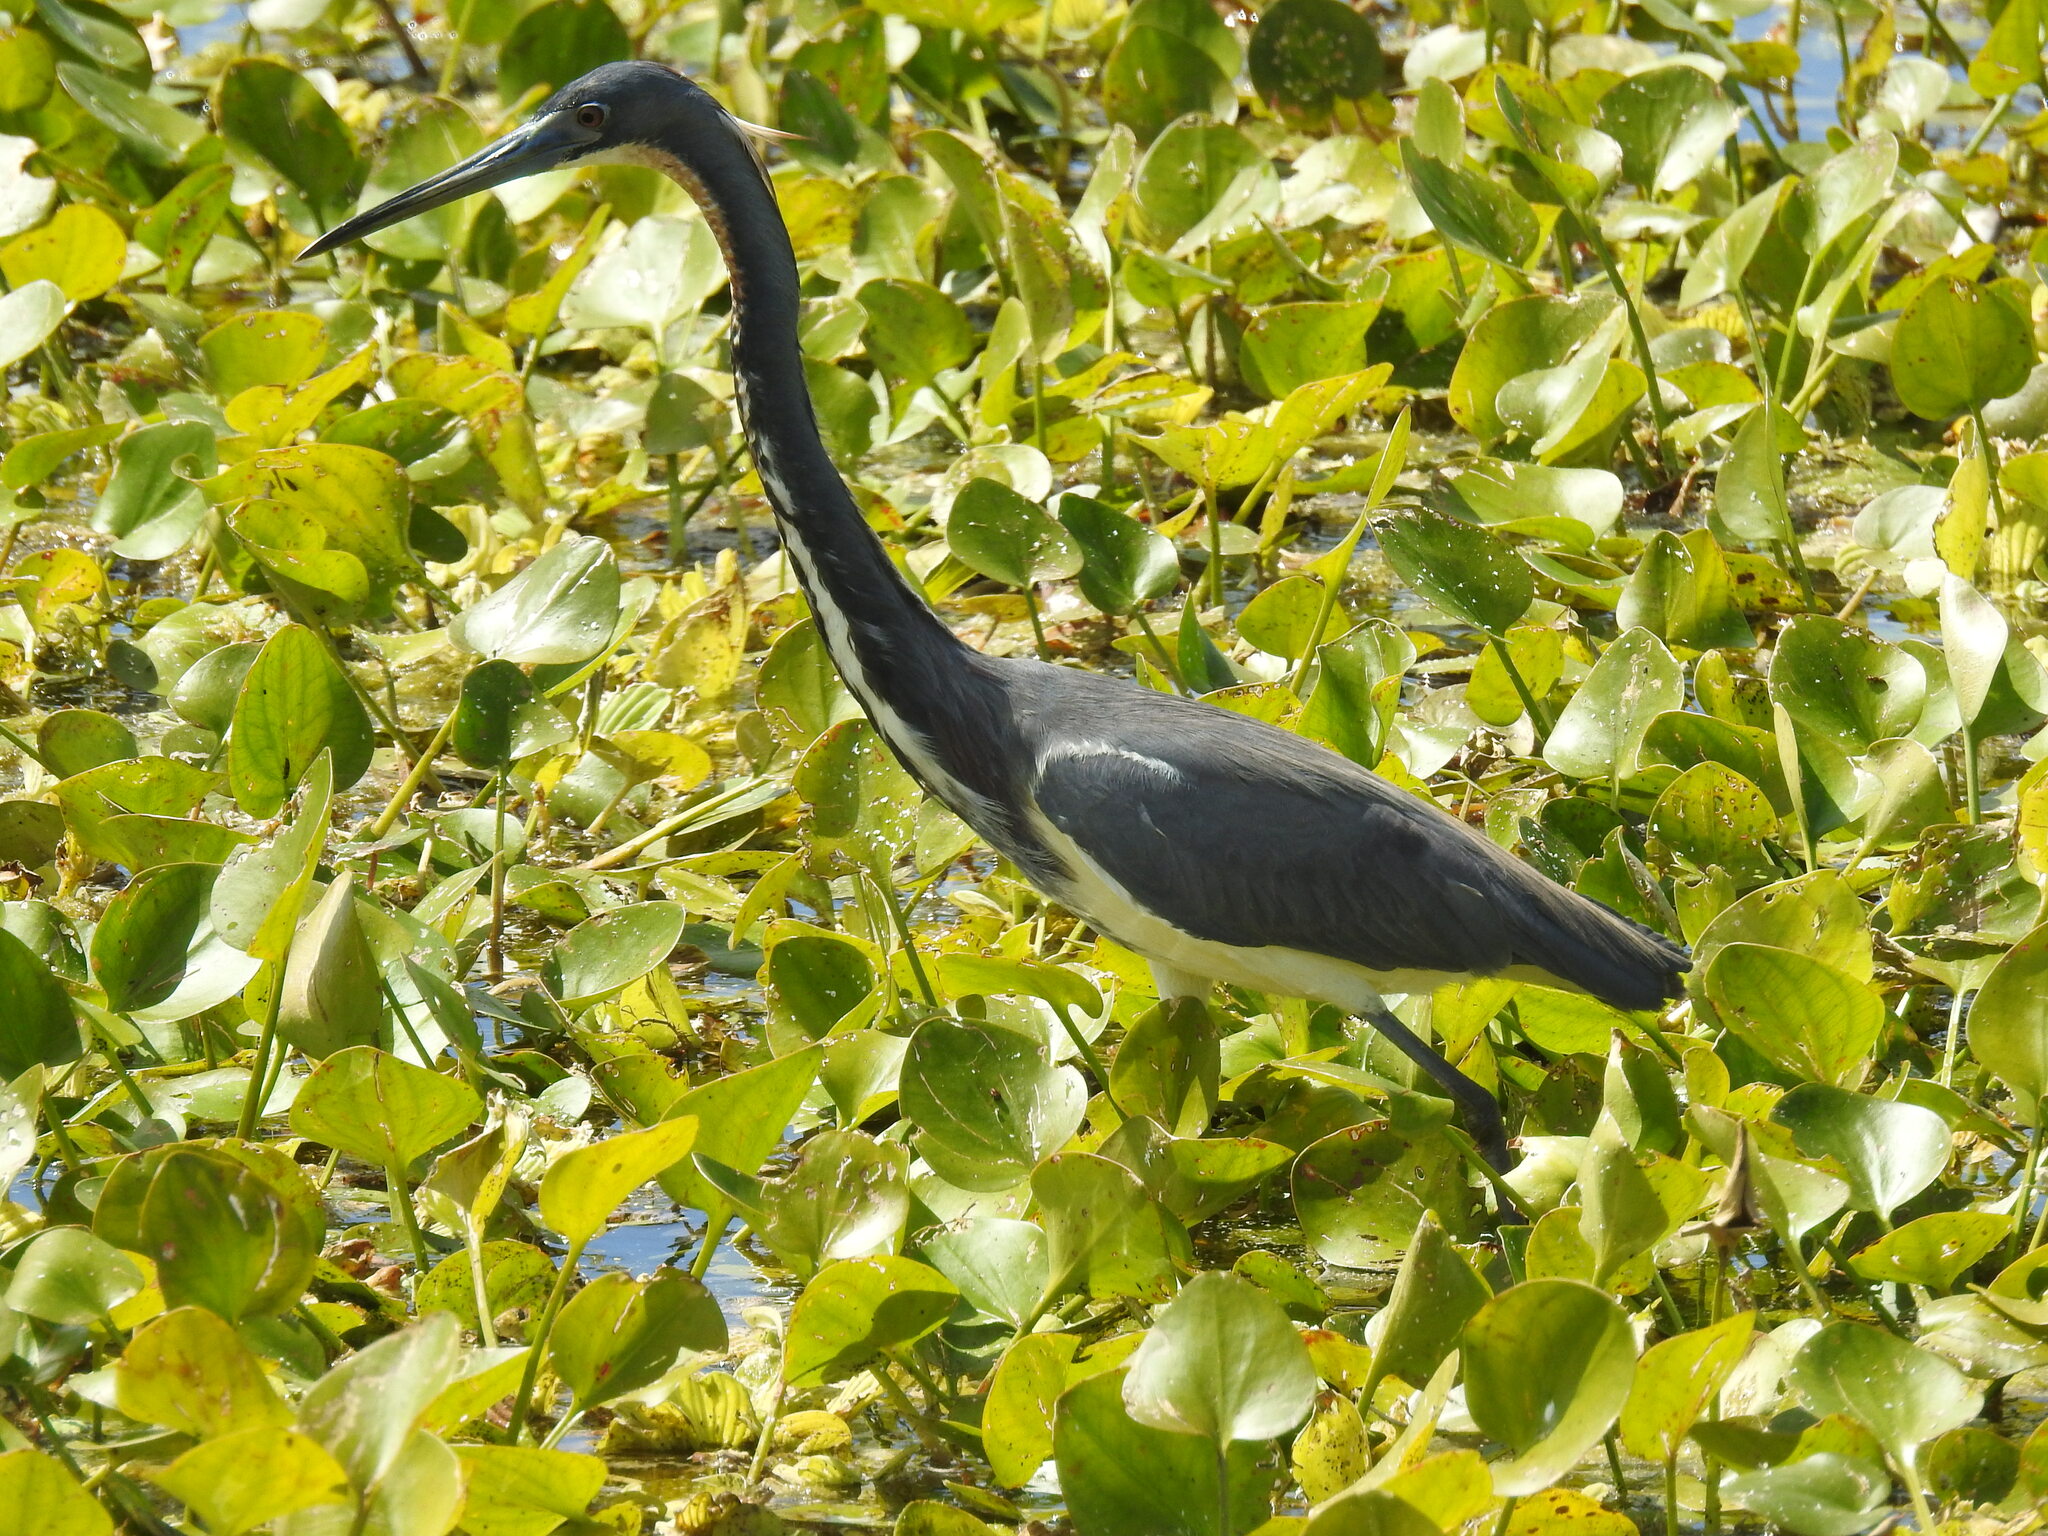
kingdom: Animalia
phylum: Chordata
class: Aves
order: Pelecaniformes
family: Ardeidae
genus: Egretta
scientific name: Egretta tricolor
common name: Tricolored heron
